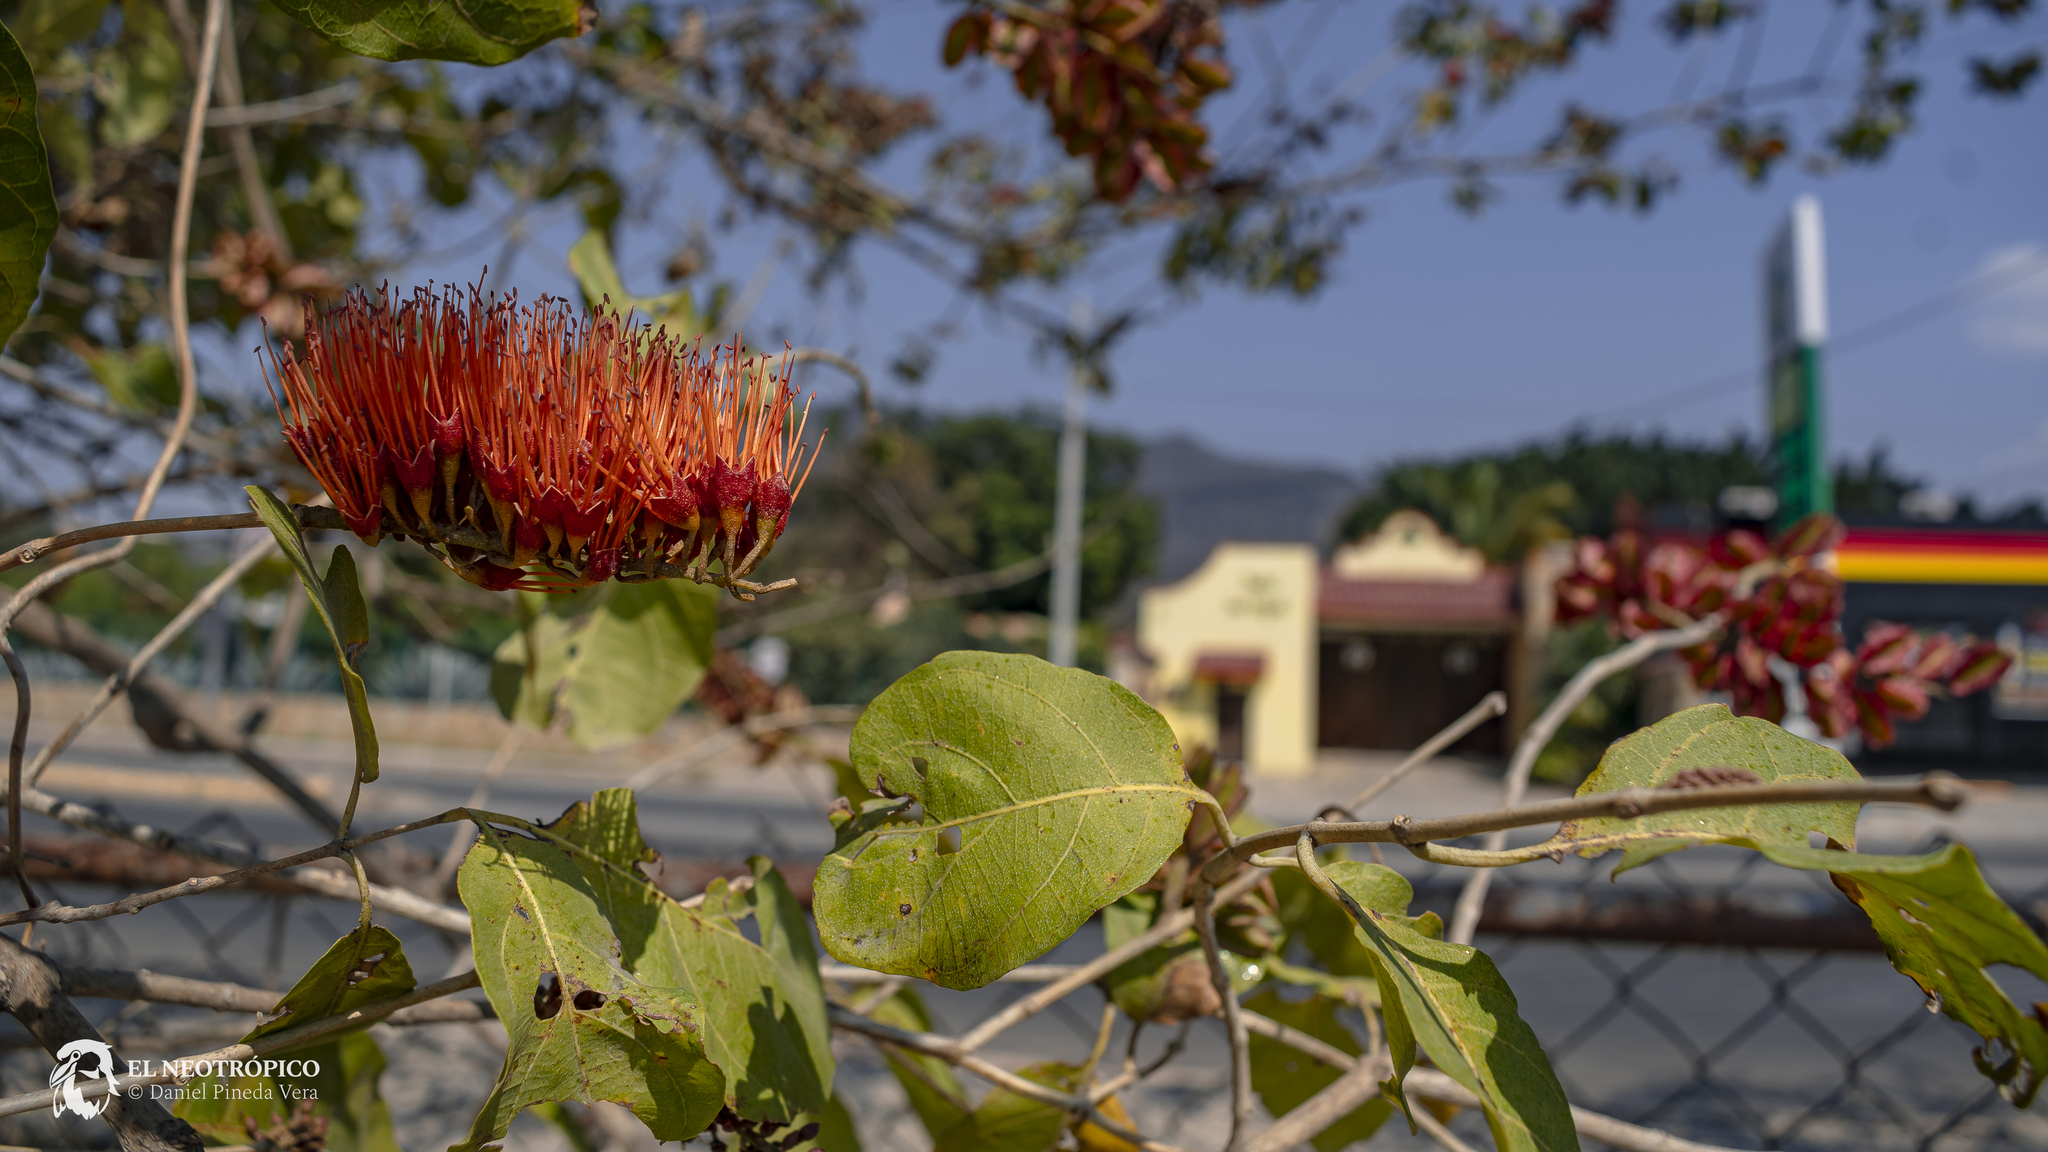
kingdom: Plantae
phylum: Tracheophyta
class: Magnoliopsida
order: Myrtales
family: Combretaceae
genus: Combretum
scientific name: Combretum farinosum
